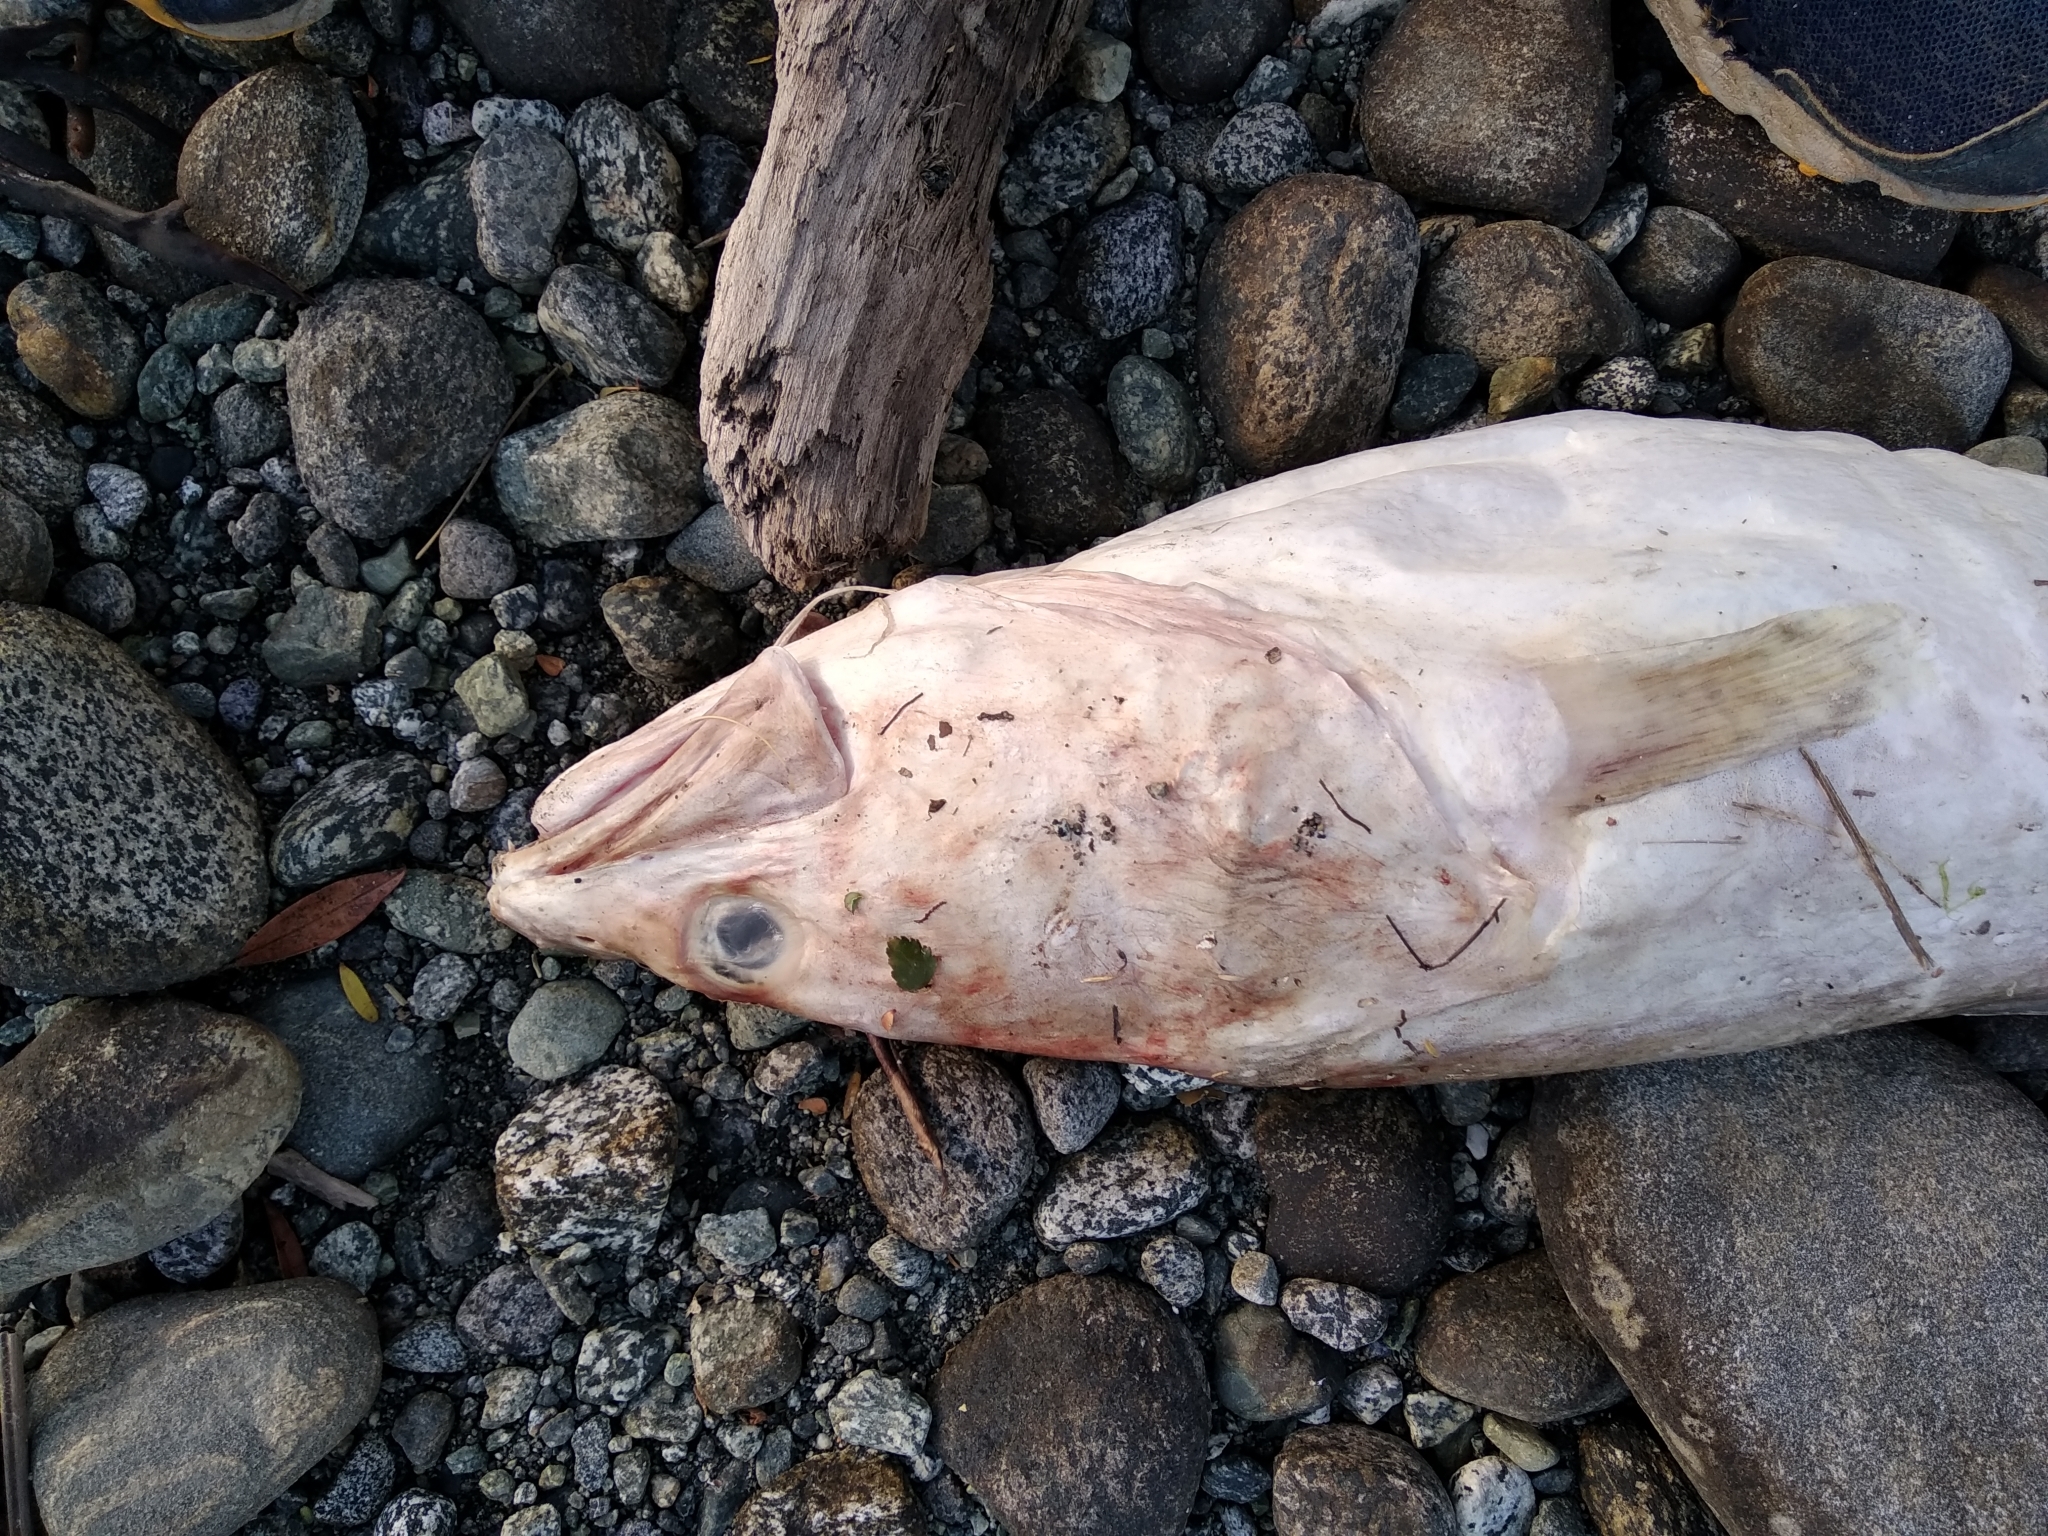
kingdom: Animalia
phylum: Chordata
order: Ophidiiformes
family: Ophidiidae
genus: Genypterus
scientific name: Genypterus blacodes
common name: Kingclip
